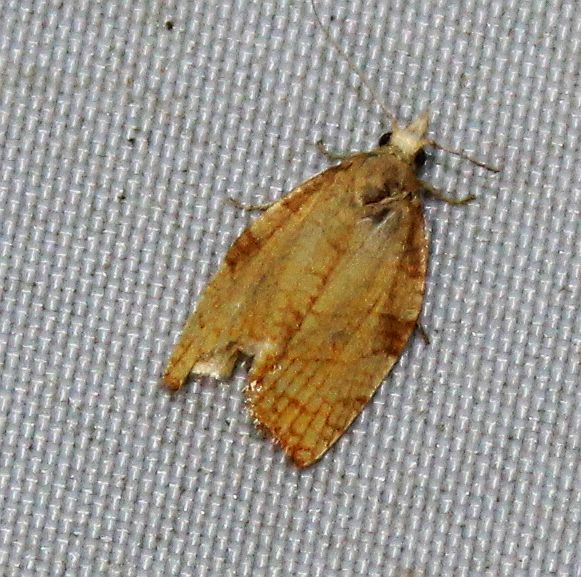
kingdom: Animalia
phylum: Arthropoda
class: Insecta
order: Lepidoptera
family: Tortricidae
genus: Pandemis
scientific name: Pandemis corylana
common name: Chequered fruit-tree tortrix
